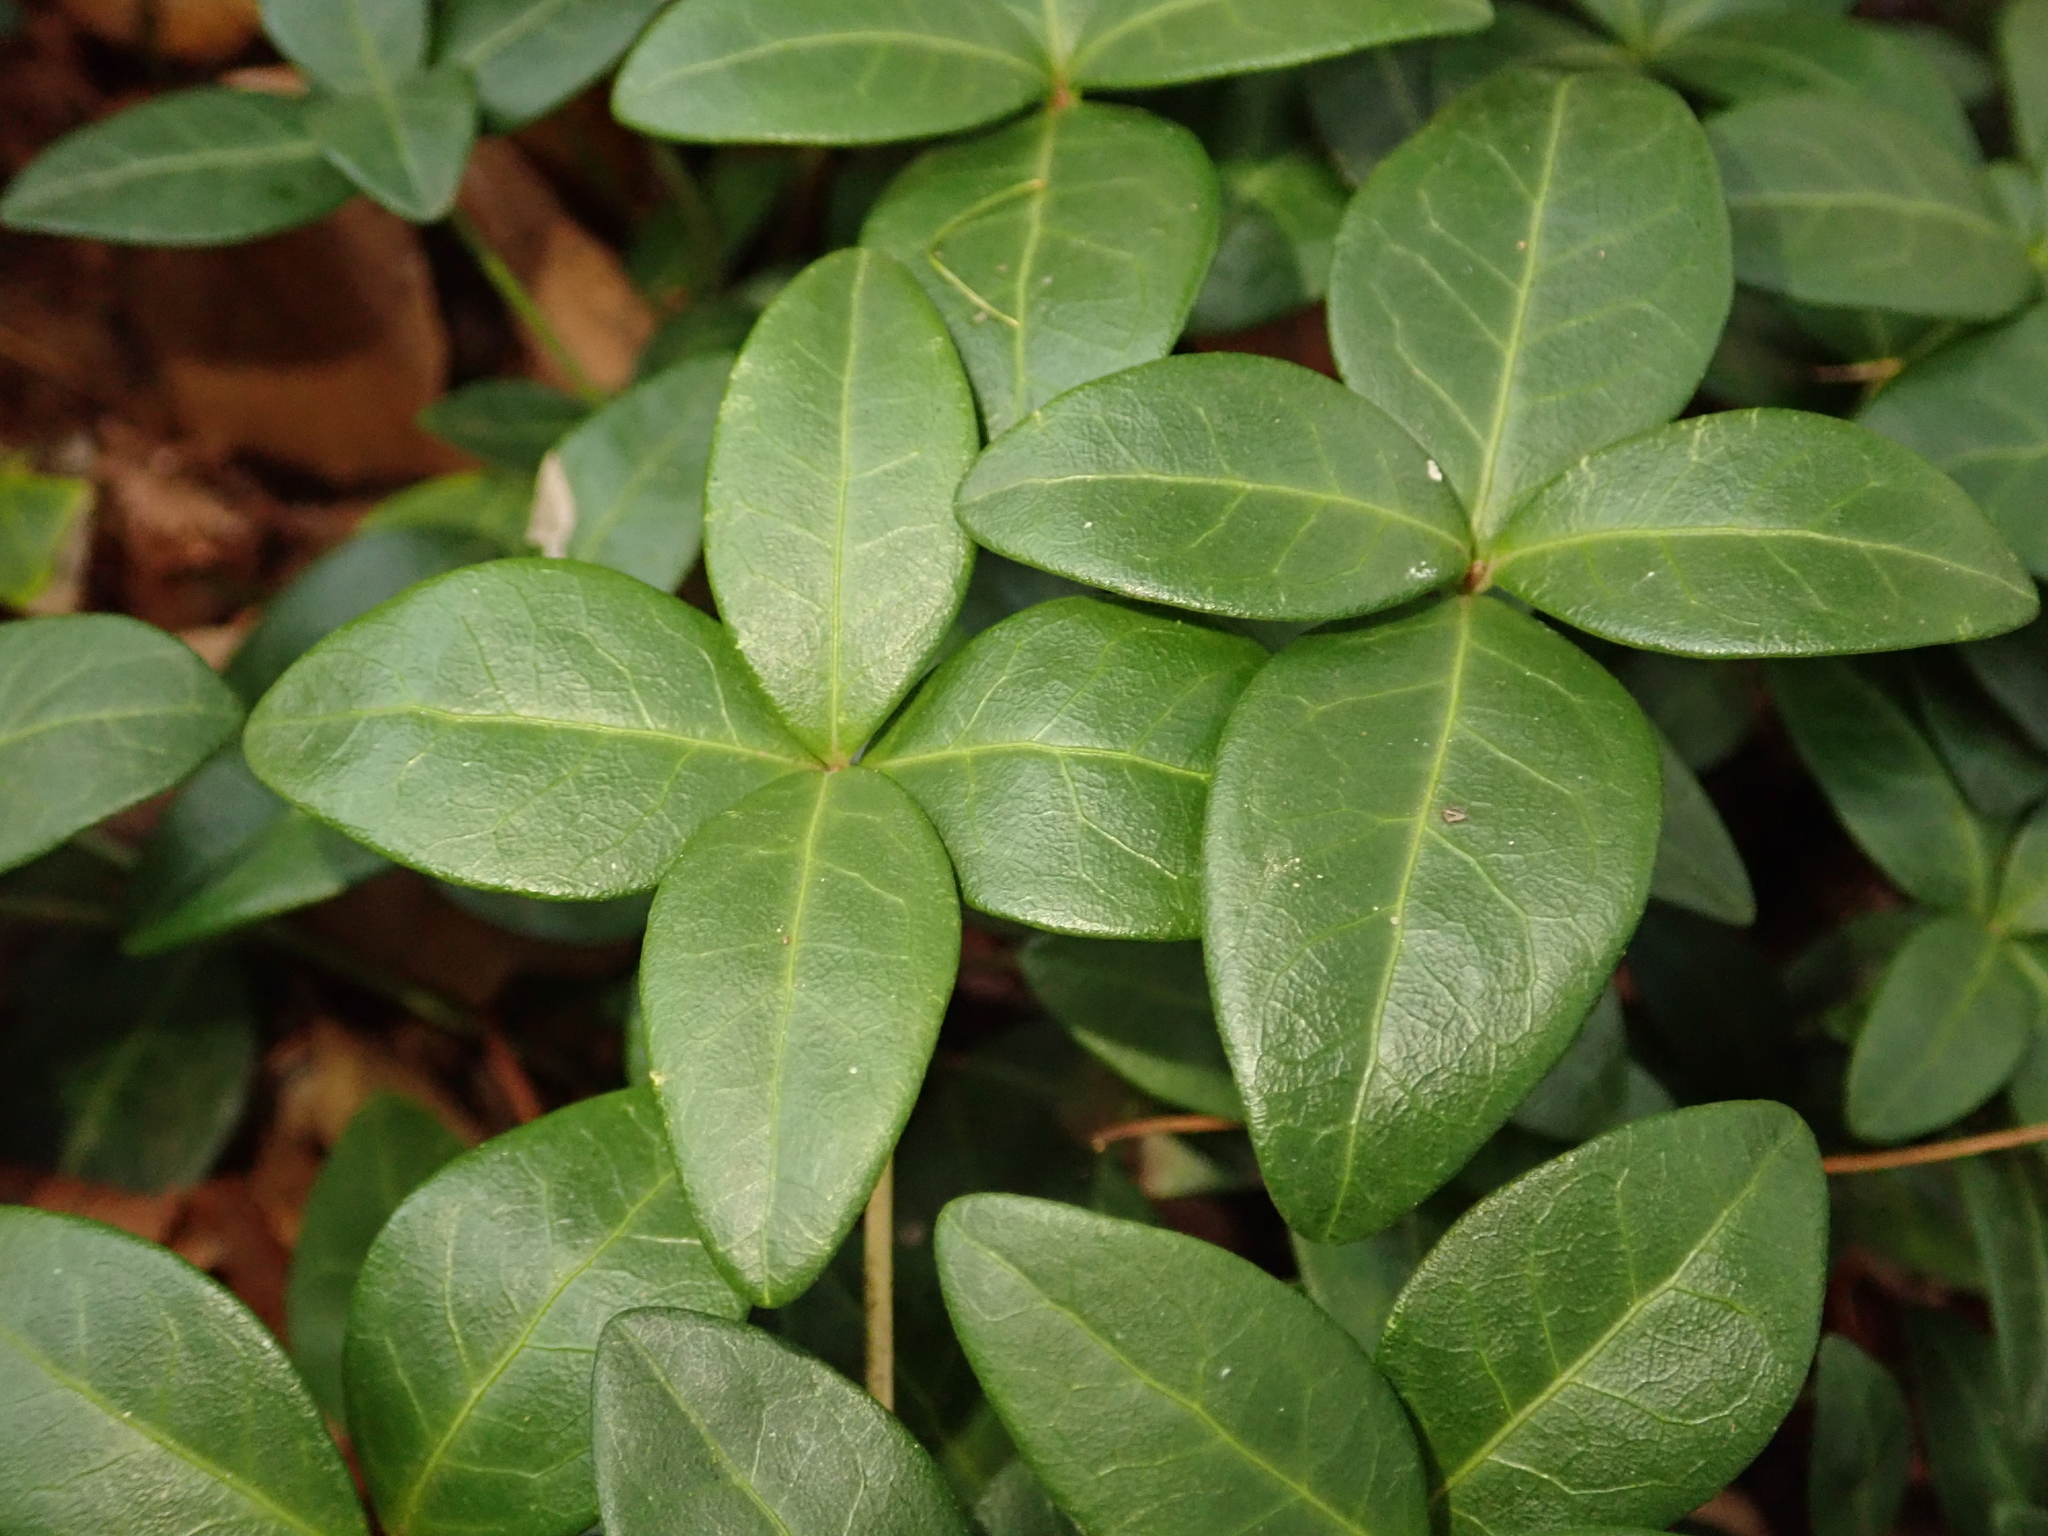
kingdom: Plantae
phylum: Tracheophyta
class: Magnoliopsida
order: Gentianales
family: Apocynaceae
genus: Vinca
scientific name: Vinca minor
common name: Lesser periwinkle
